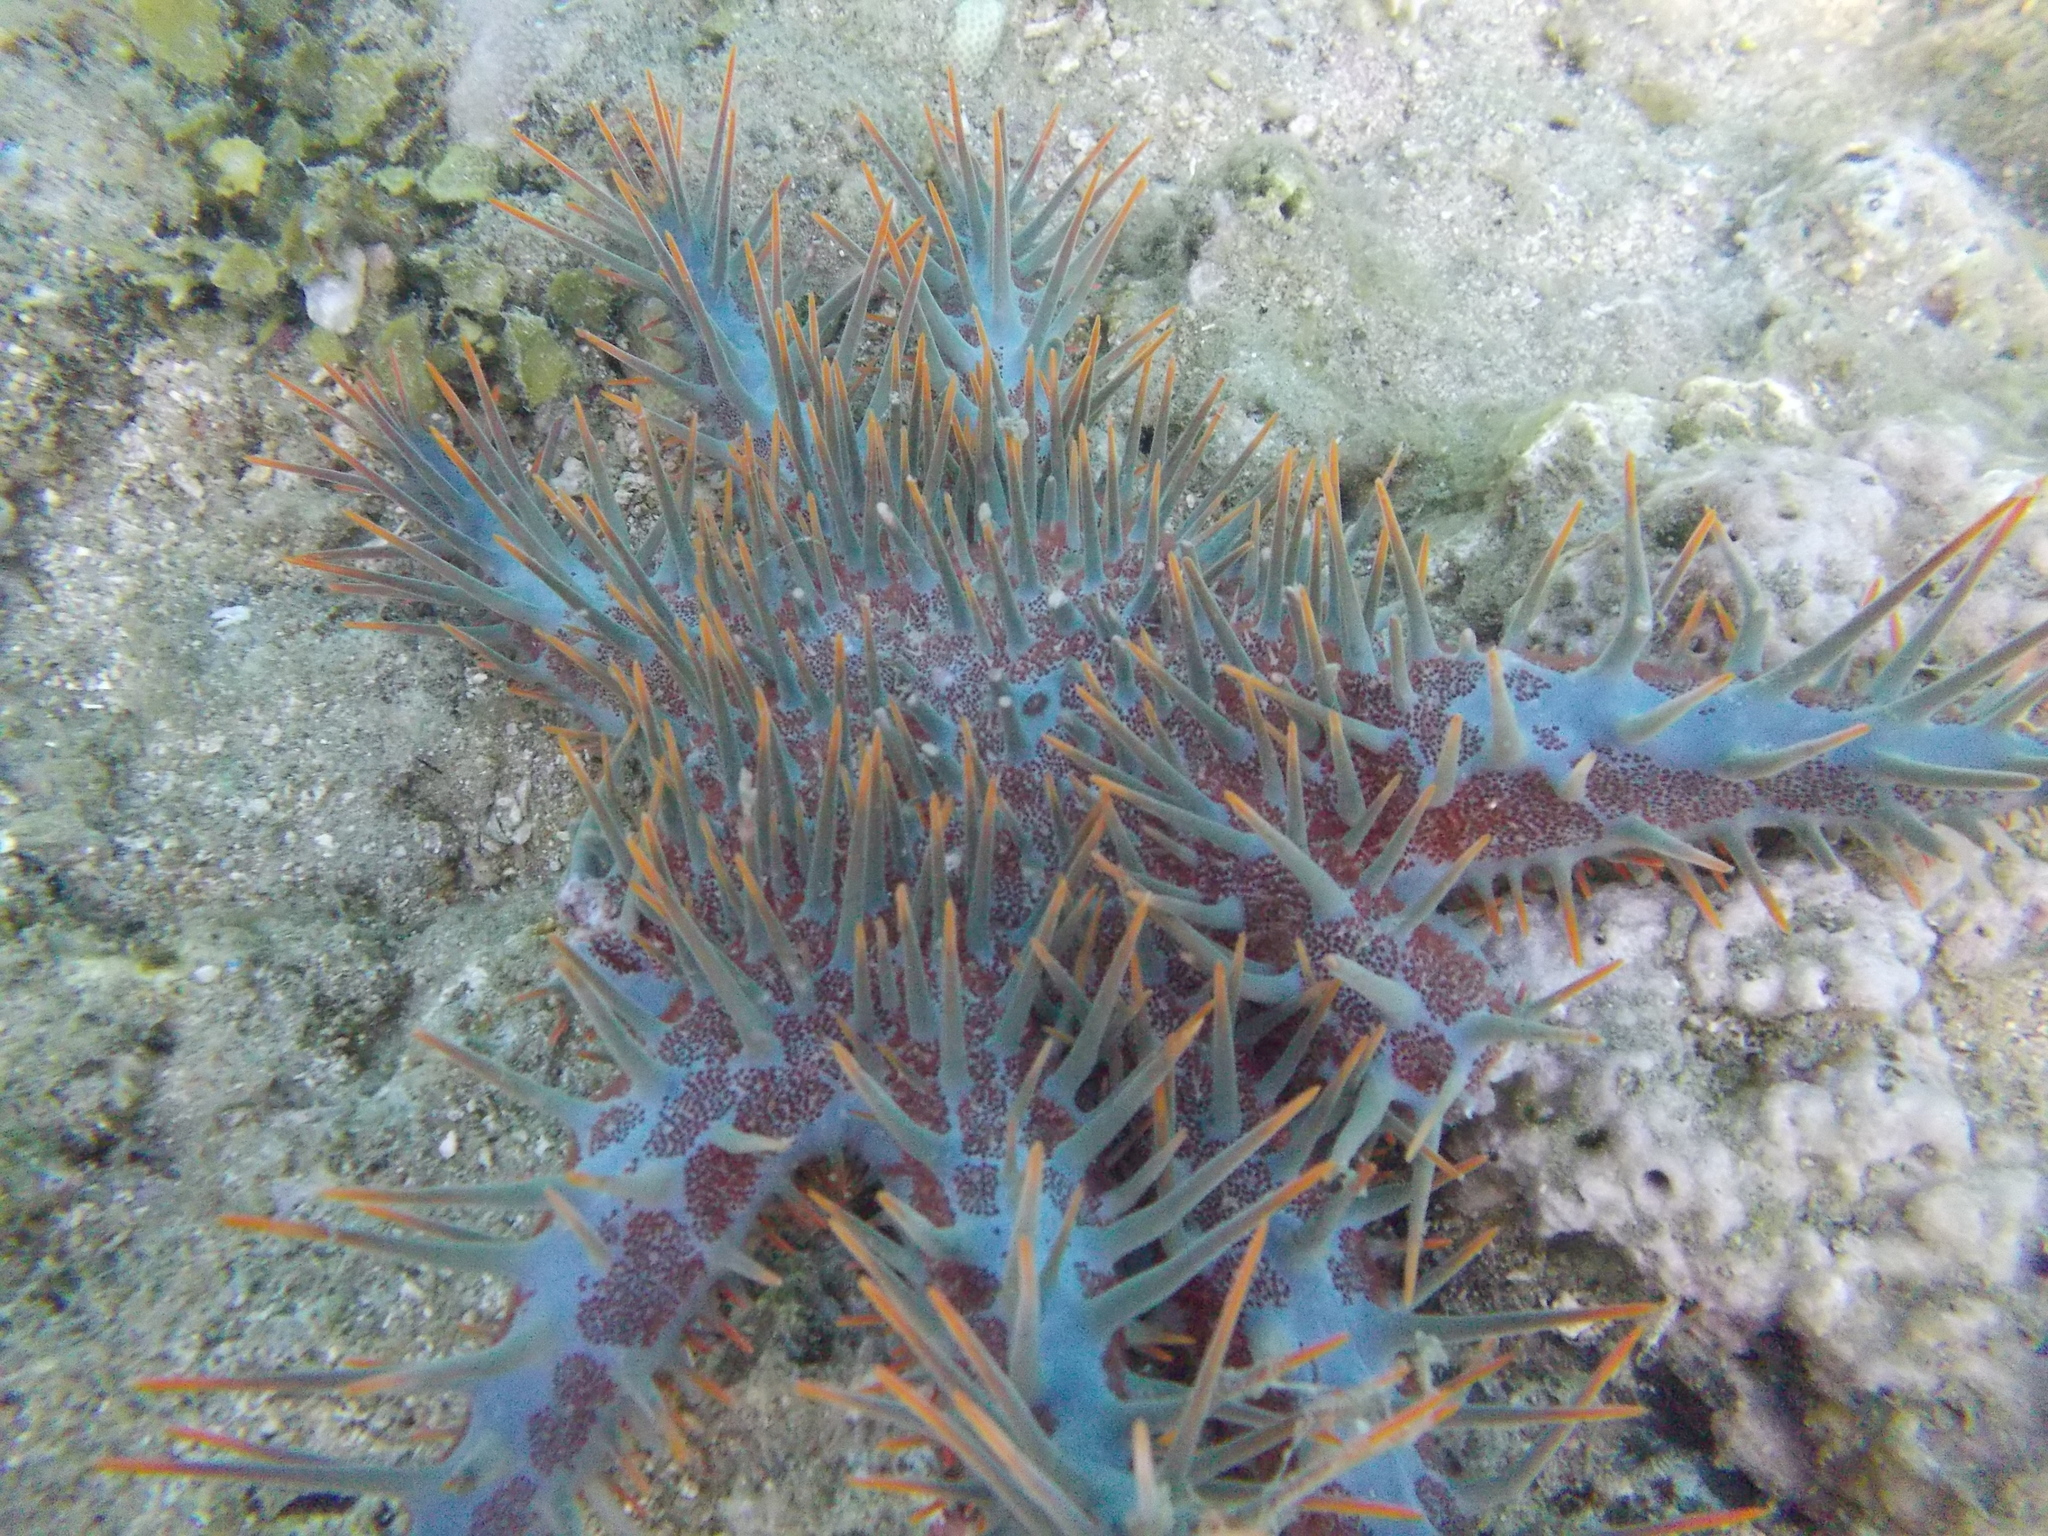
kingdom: Animalia
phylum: Echinodermata
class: Asteroidea
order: Valvatida
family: Acanthasteridae
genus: Acanthaster
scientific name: Acanthaster planci
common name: Crown-of-thorns
